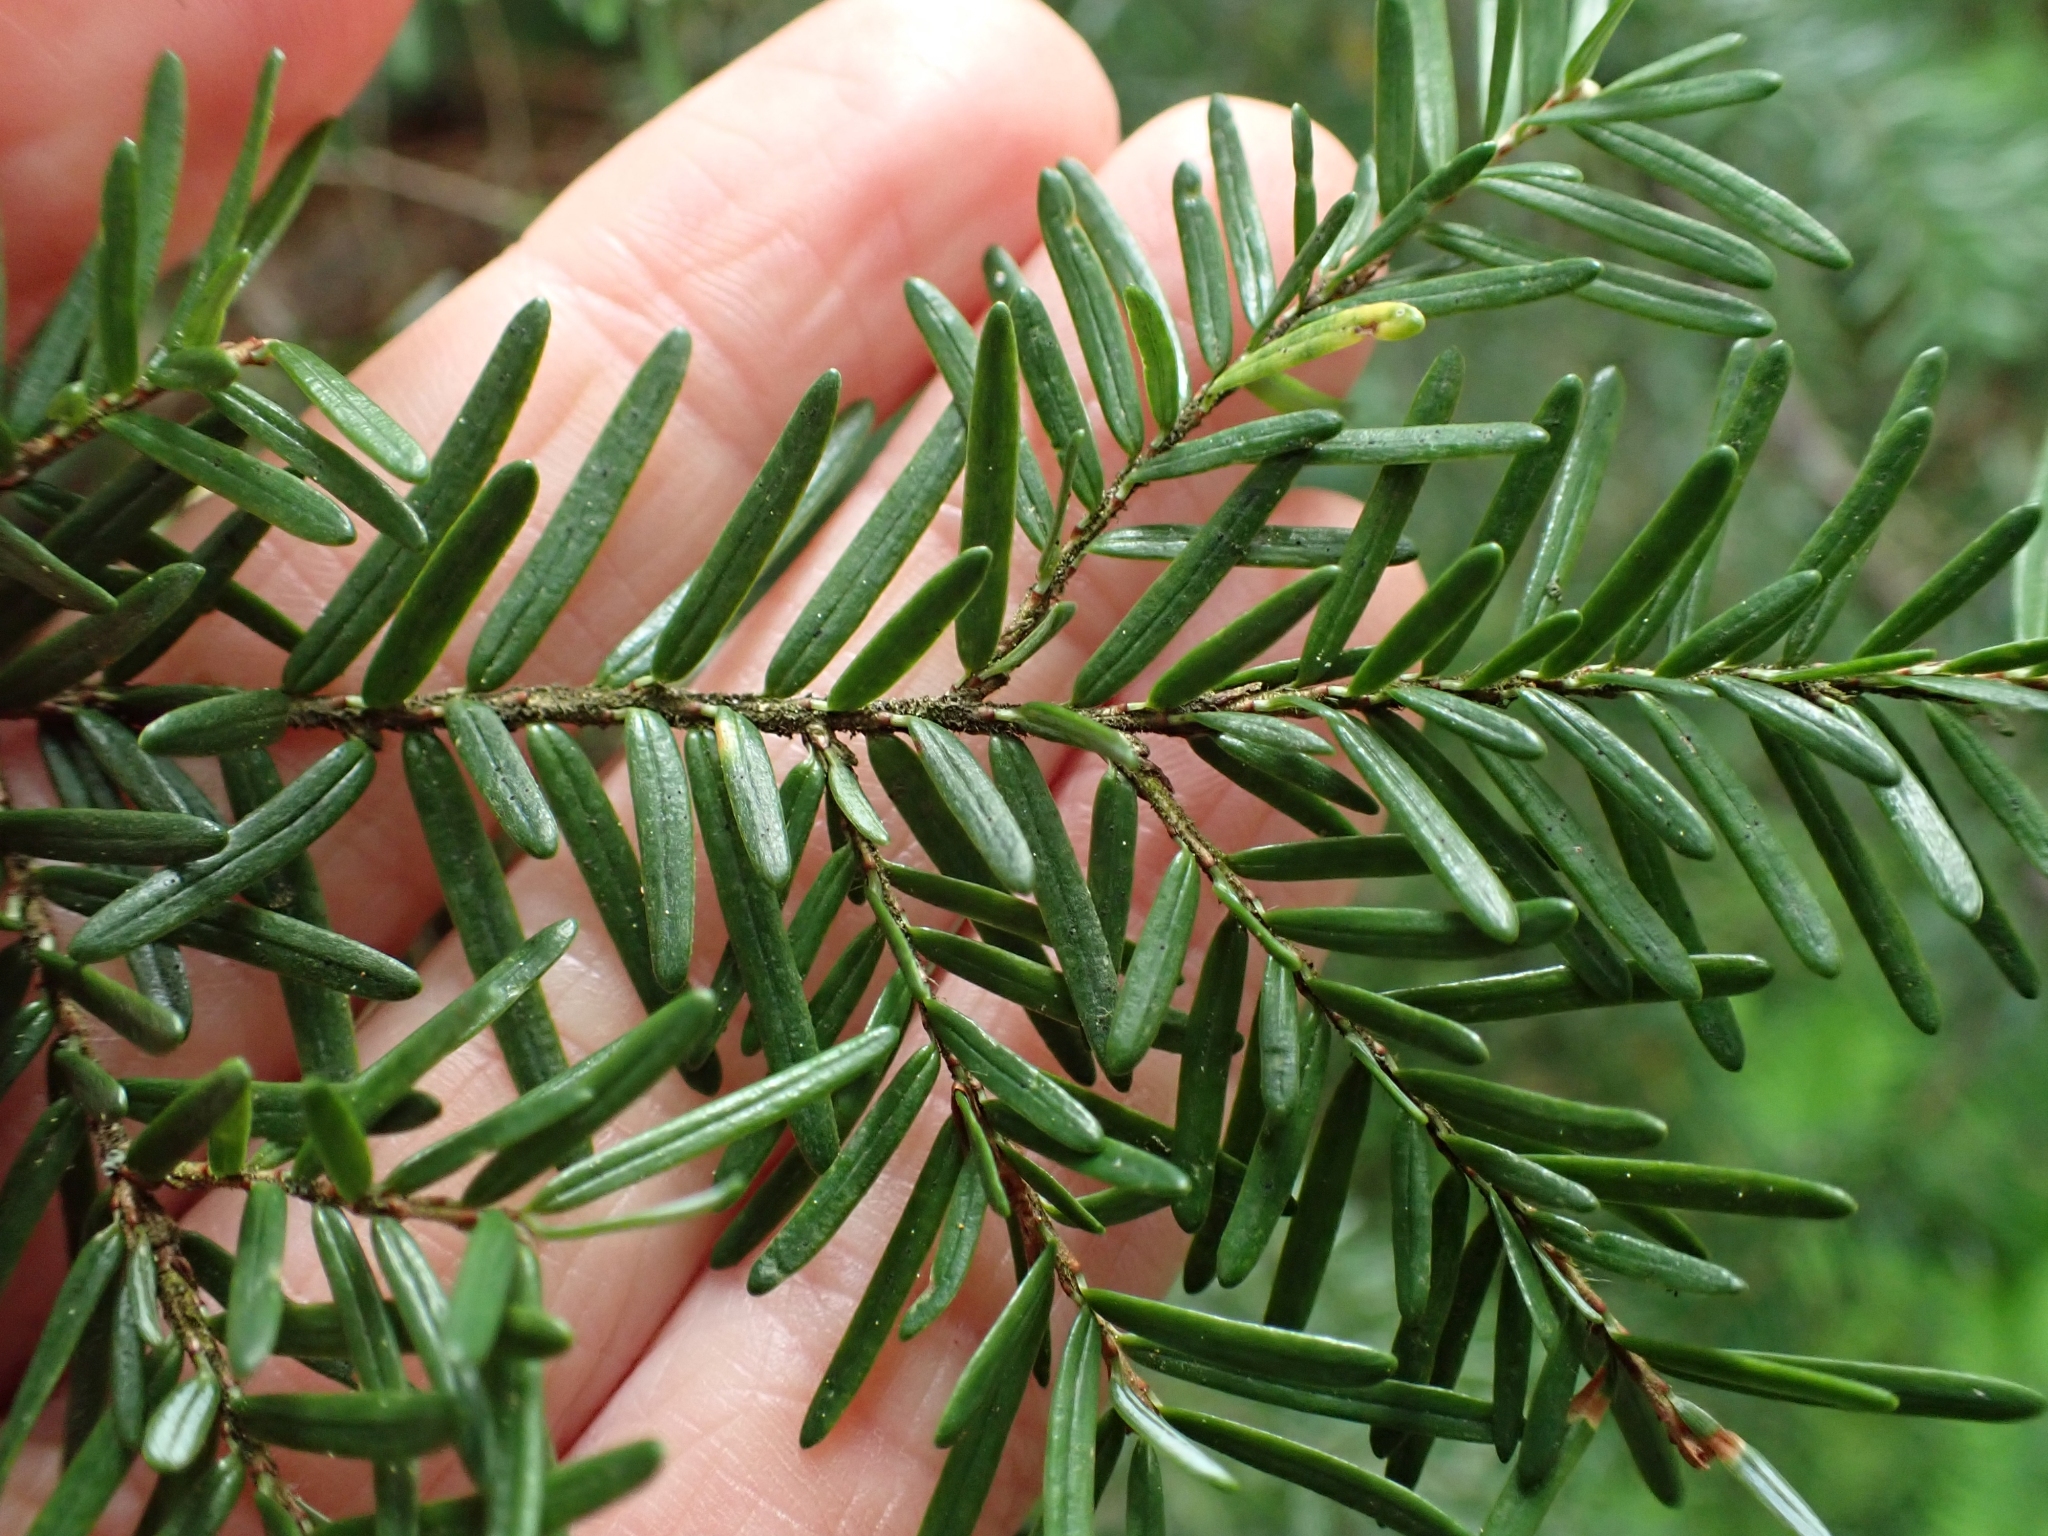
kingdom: Plantae
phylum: Tracheophyta
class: Pinopsida
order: Pinales
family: Pinaceae
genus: Tsuga
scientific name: Tsuga heterophylla
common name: Western hemlock
